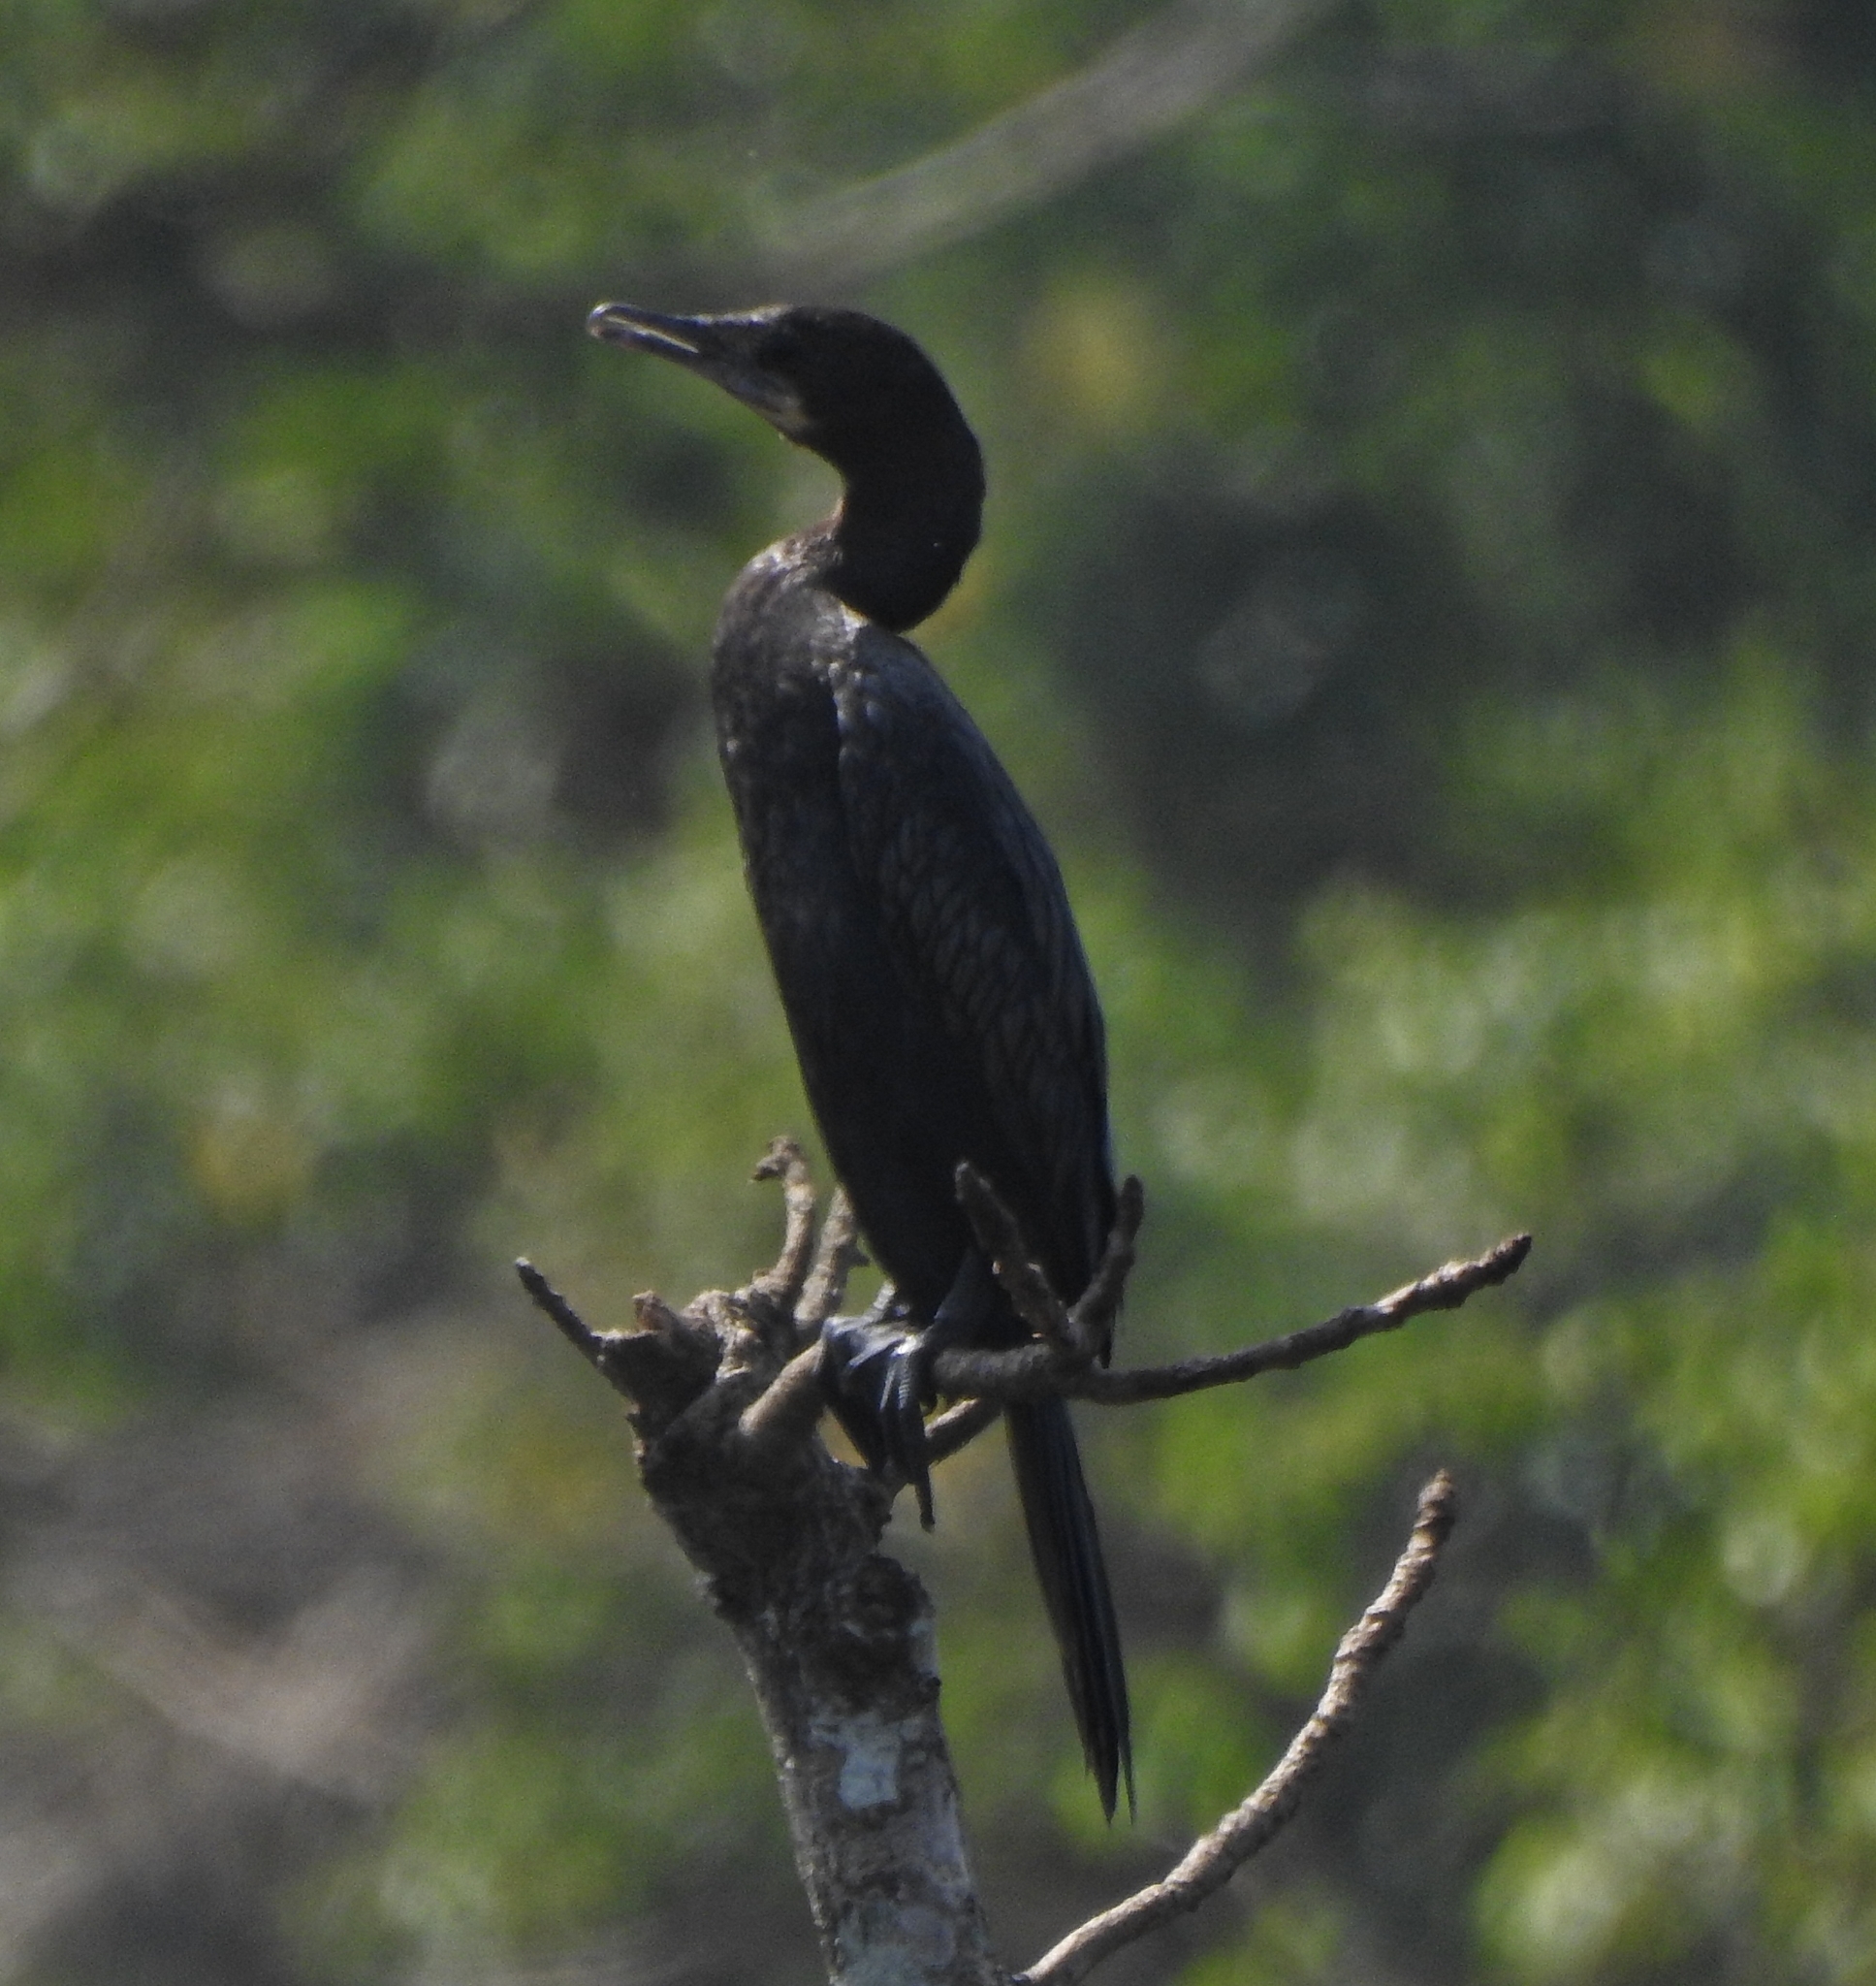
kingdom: Animalia
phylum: Chordata
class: Aves
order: Suliformes
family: Phalacrocoracidae
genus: Microcarbo
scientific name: Microcarbo niger
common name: Little cormorant
